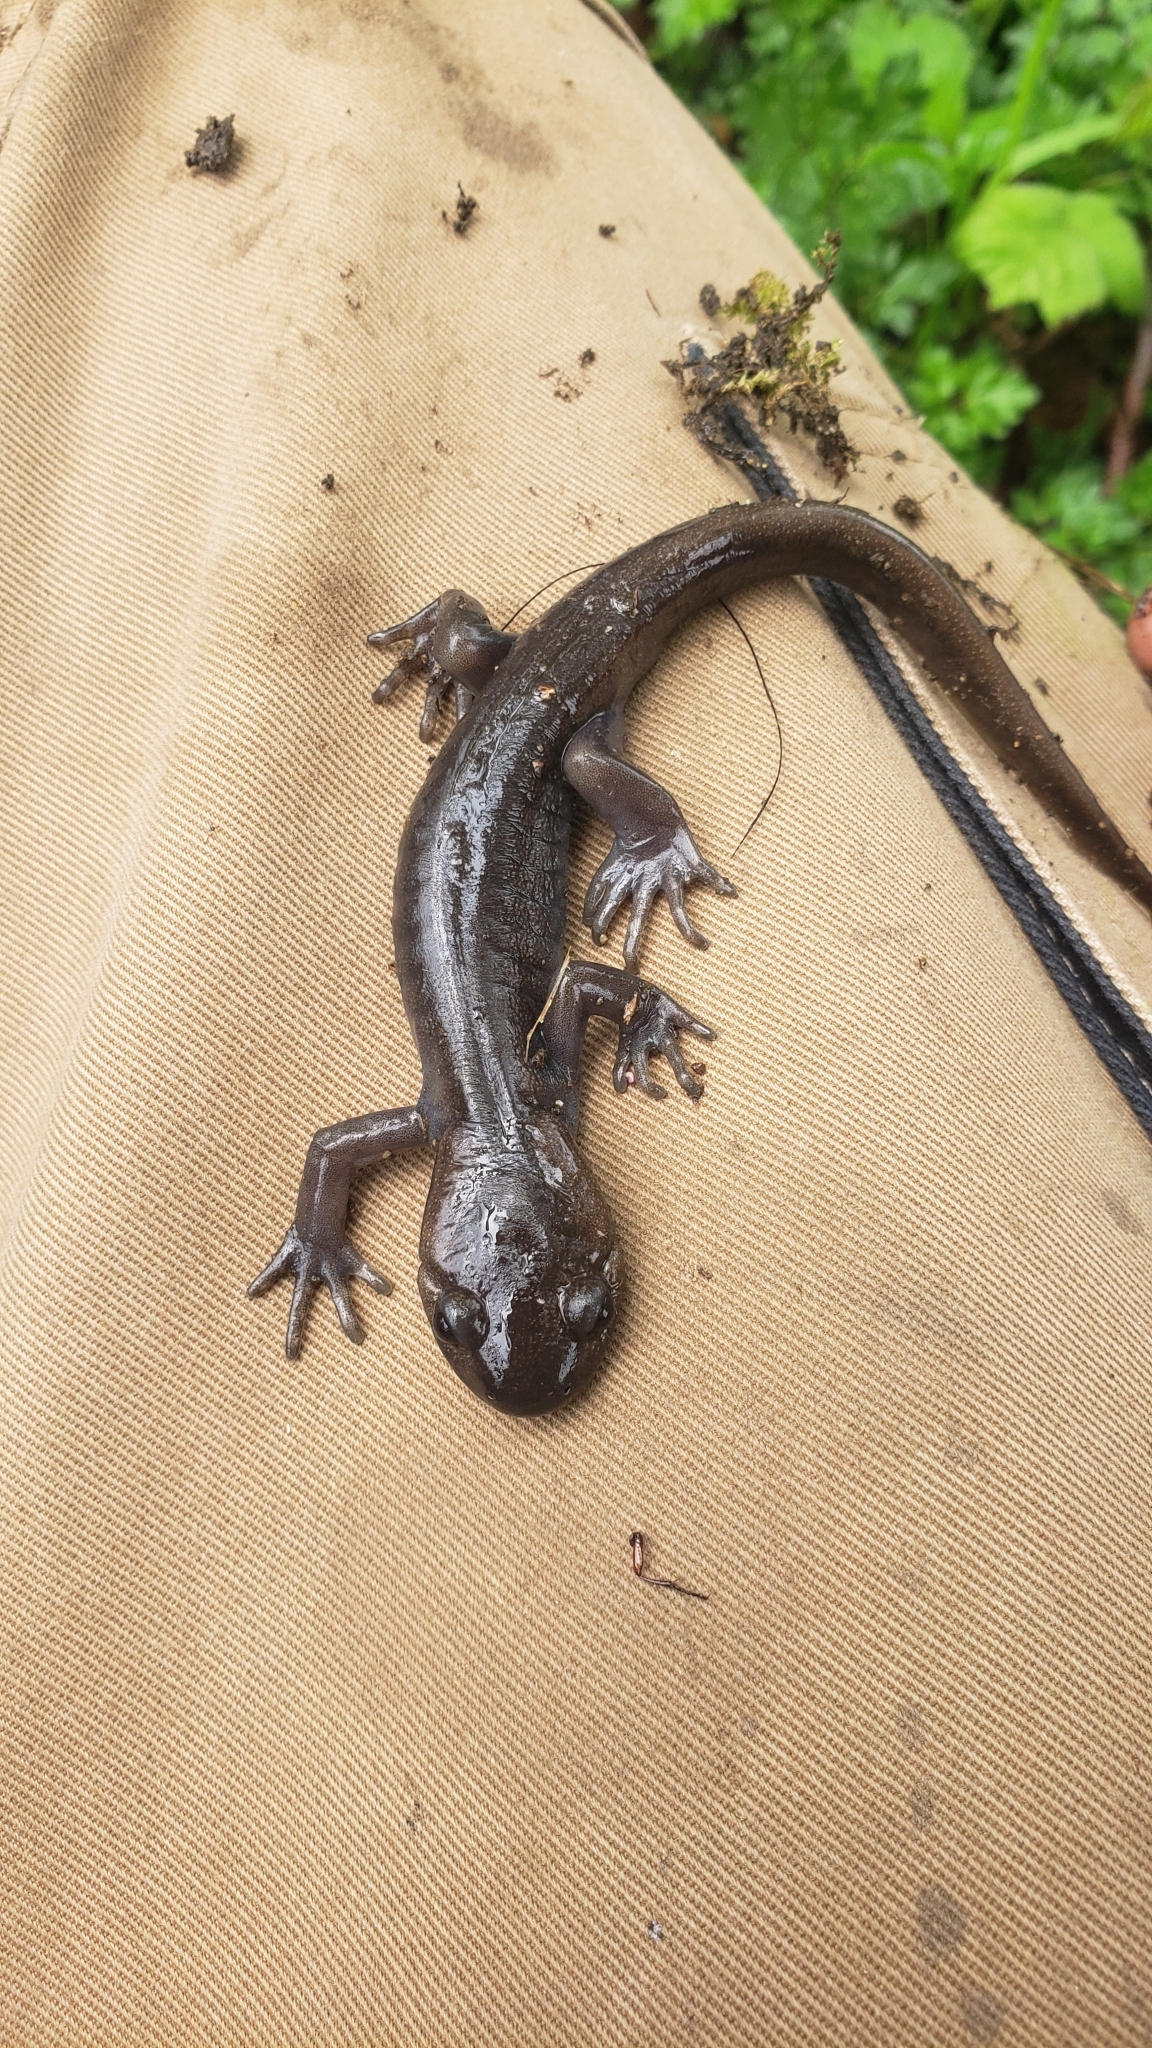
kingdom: Animalia
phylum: Chordata
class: Amphibia
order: Caudata
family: Ambystomatidae
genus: Ambystoma
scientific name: Ambystoma gracile
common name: Northwestern salamander
